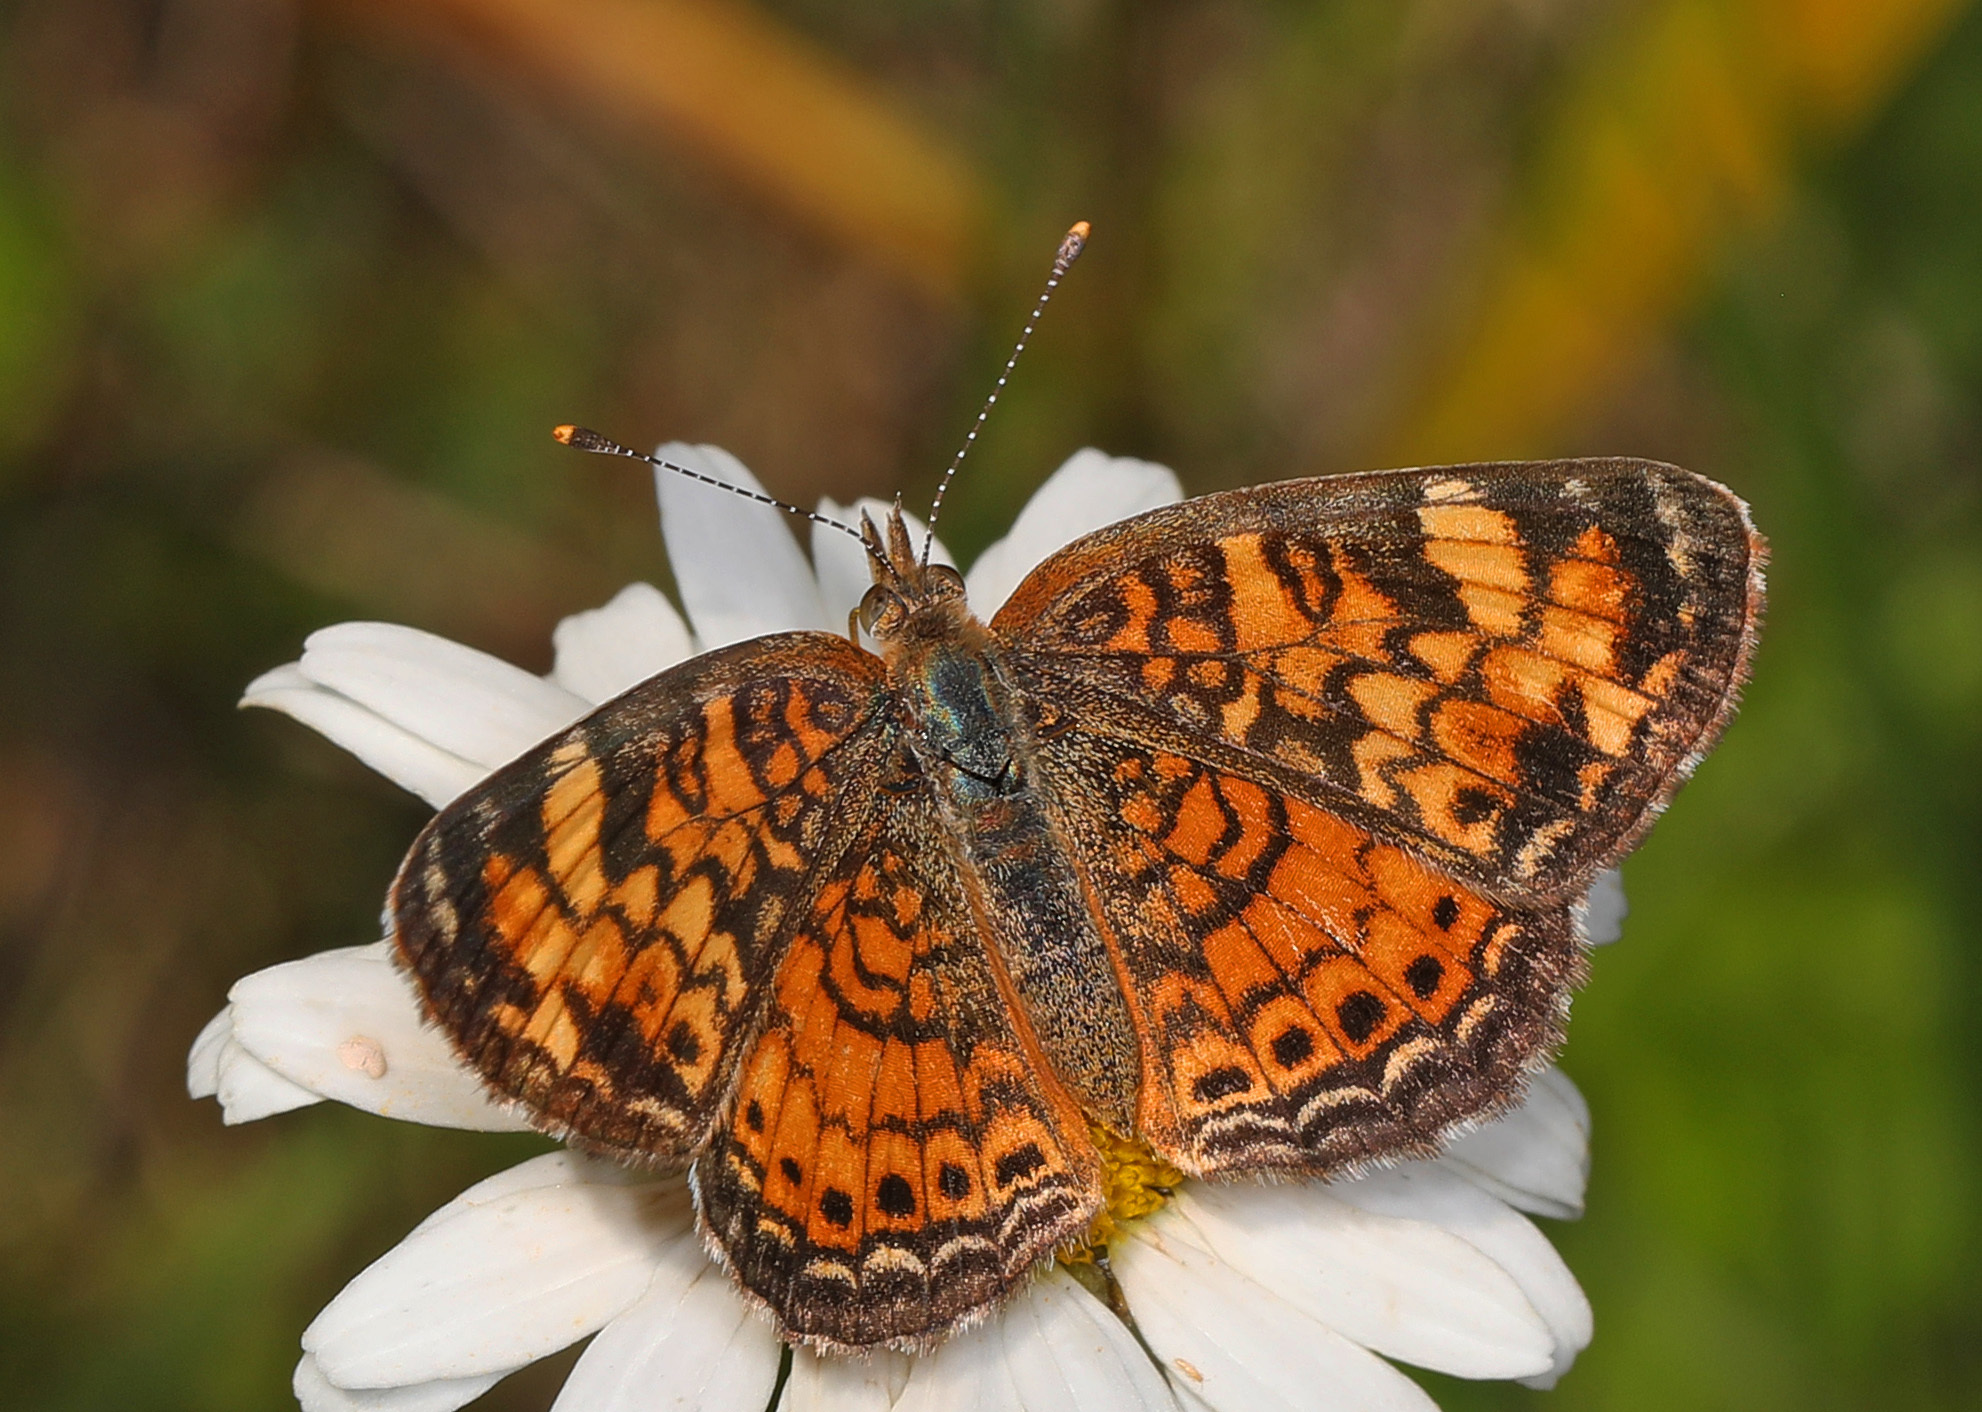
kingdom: Animalia
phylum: Arthropoda
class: Insecta
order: Lepidoptera
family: Nymphalidae
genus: Phyciodes
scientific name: Phyciodes tharos
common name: Pearl crescent
